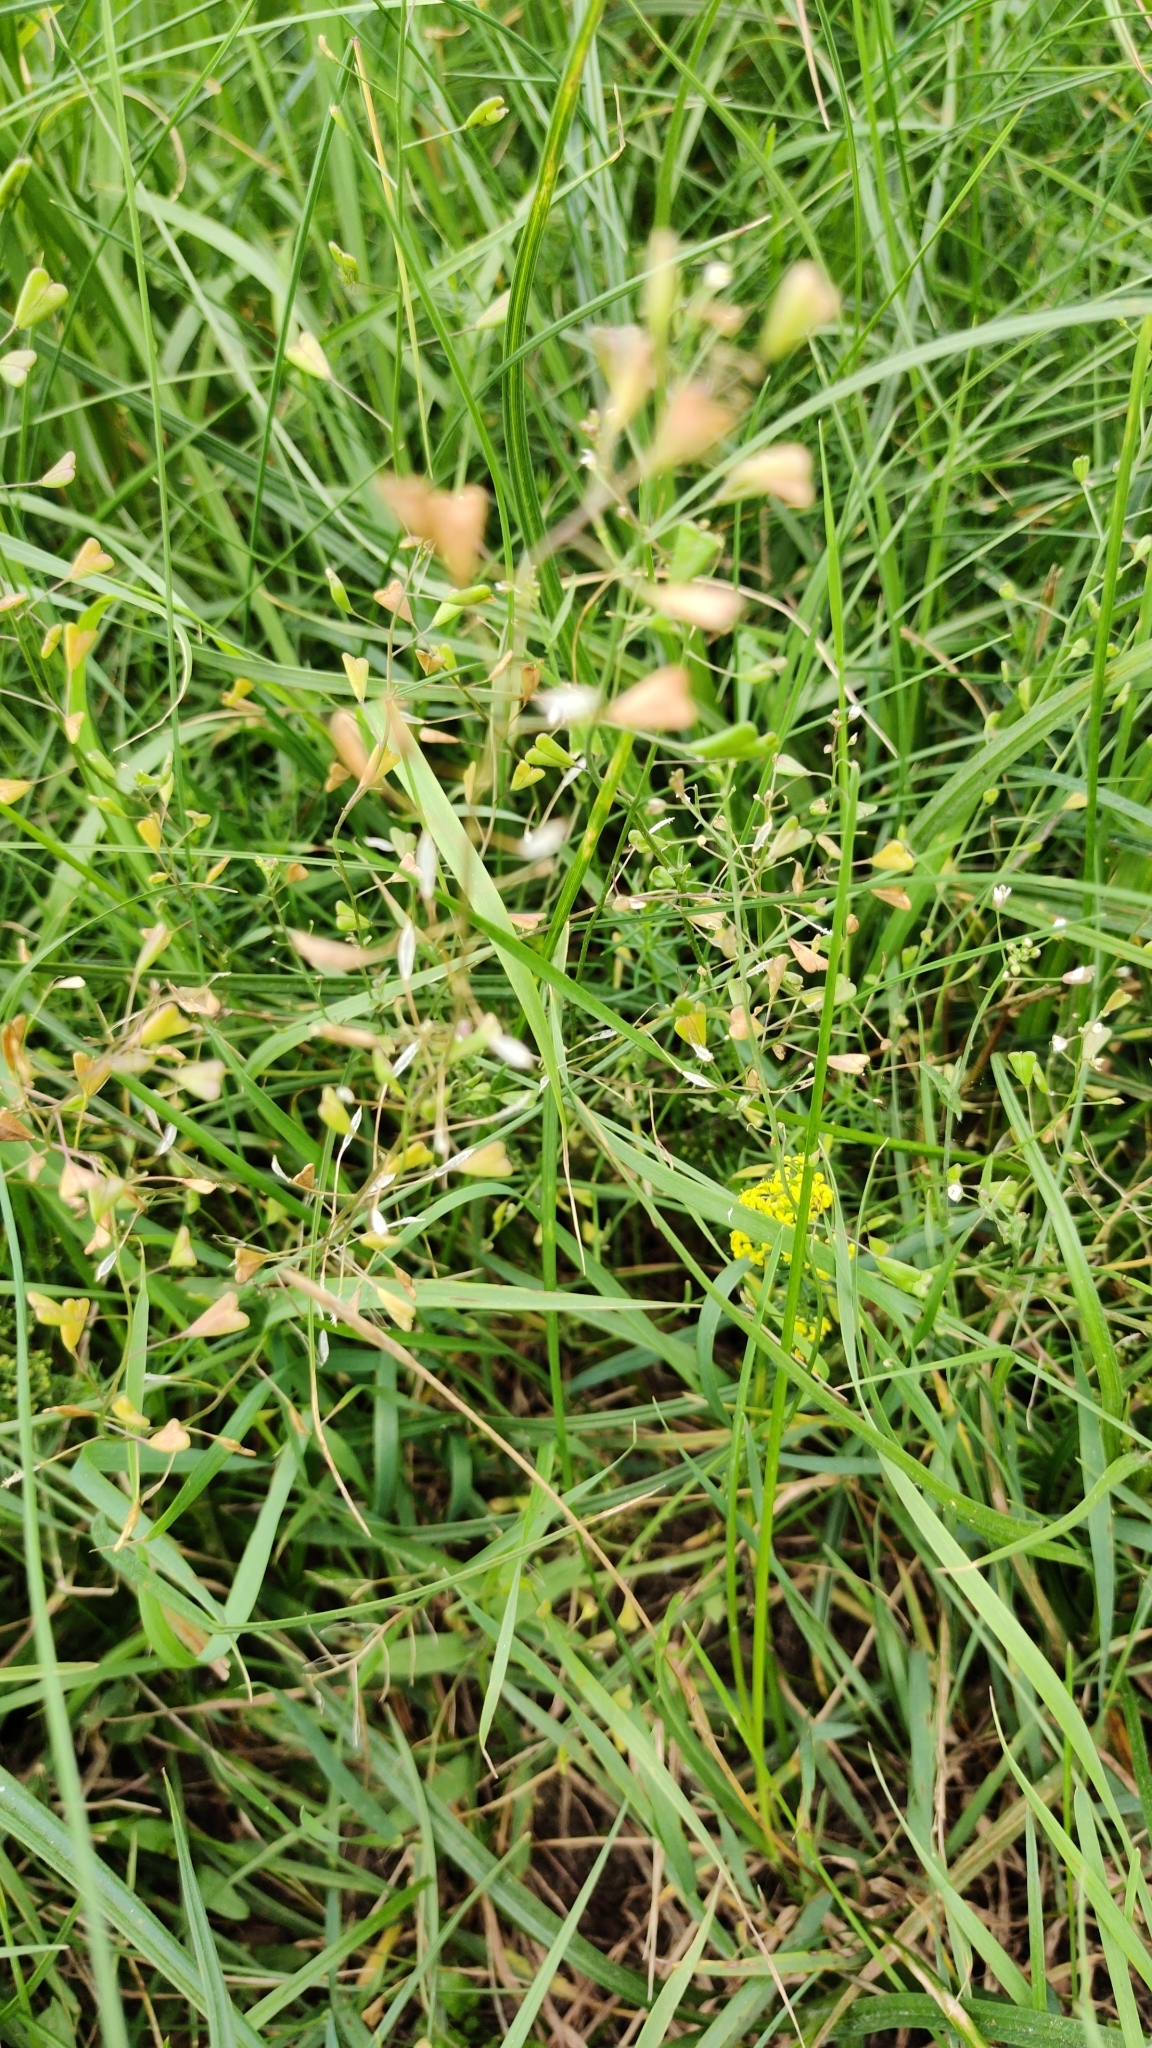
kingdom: Plantae
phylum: Tracheophyta
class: Magnoliopsida
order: Brassicales
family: Brassicaceae
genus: Capsella
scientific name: Capsella bursa-pastoris
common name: Shepherd's purse
